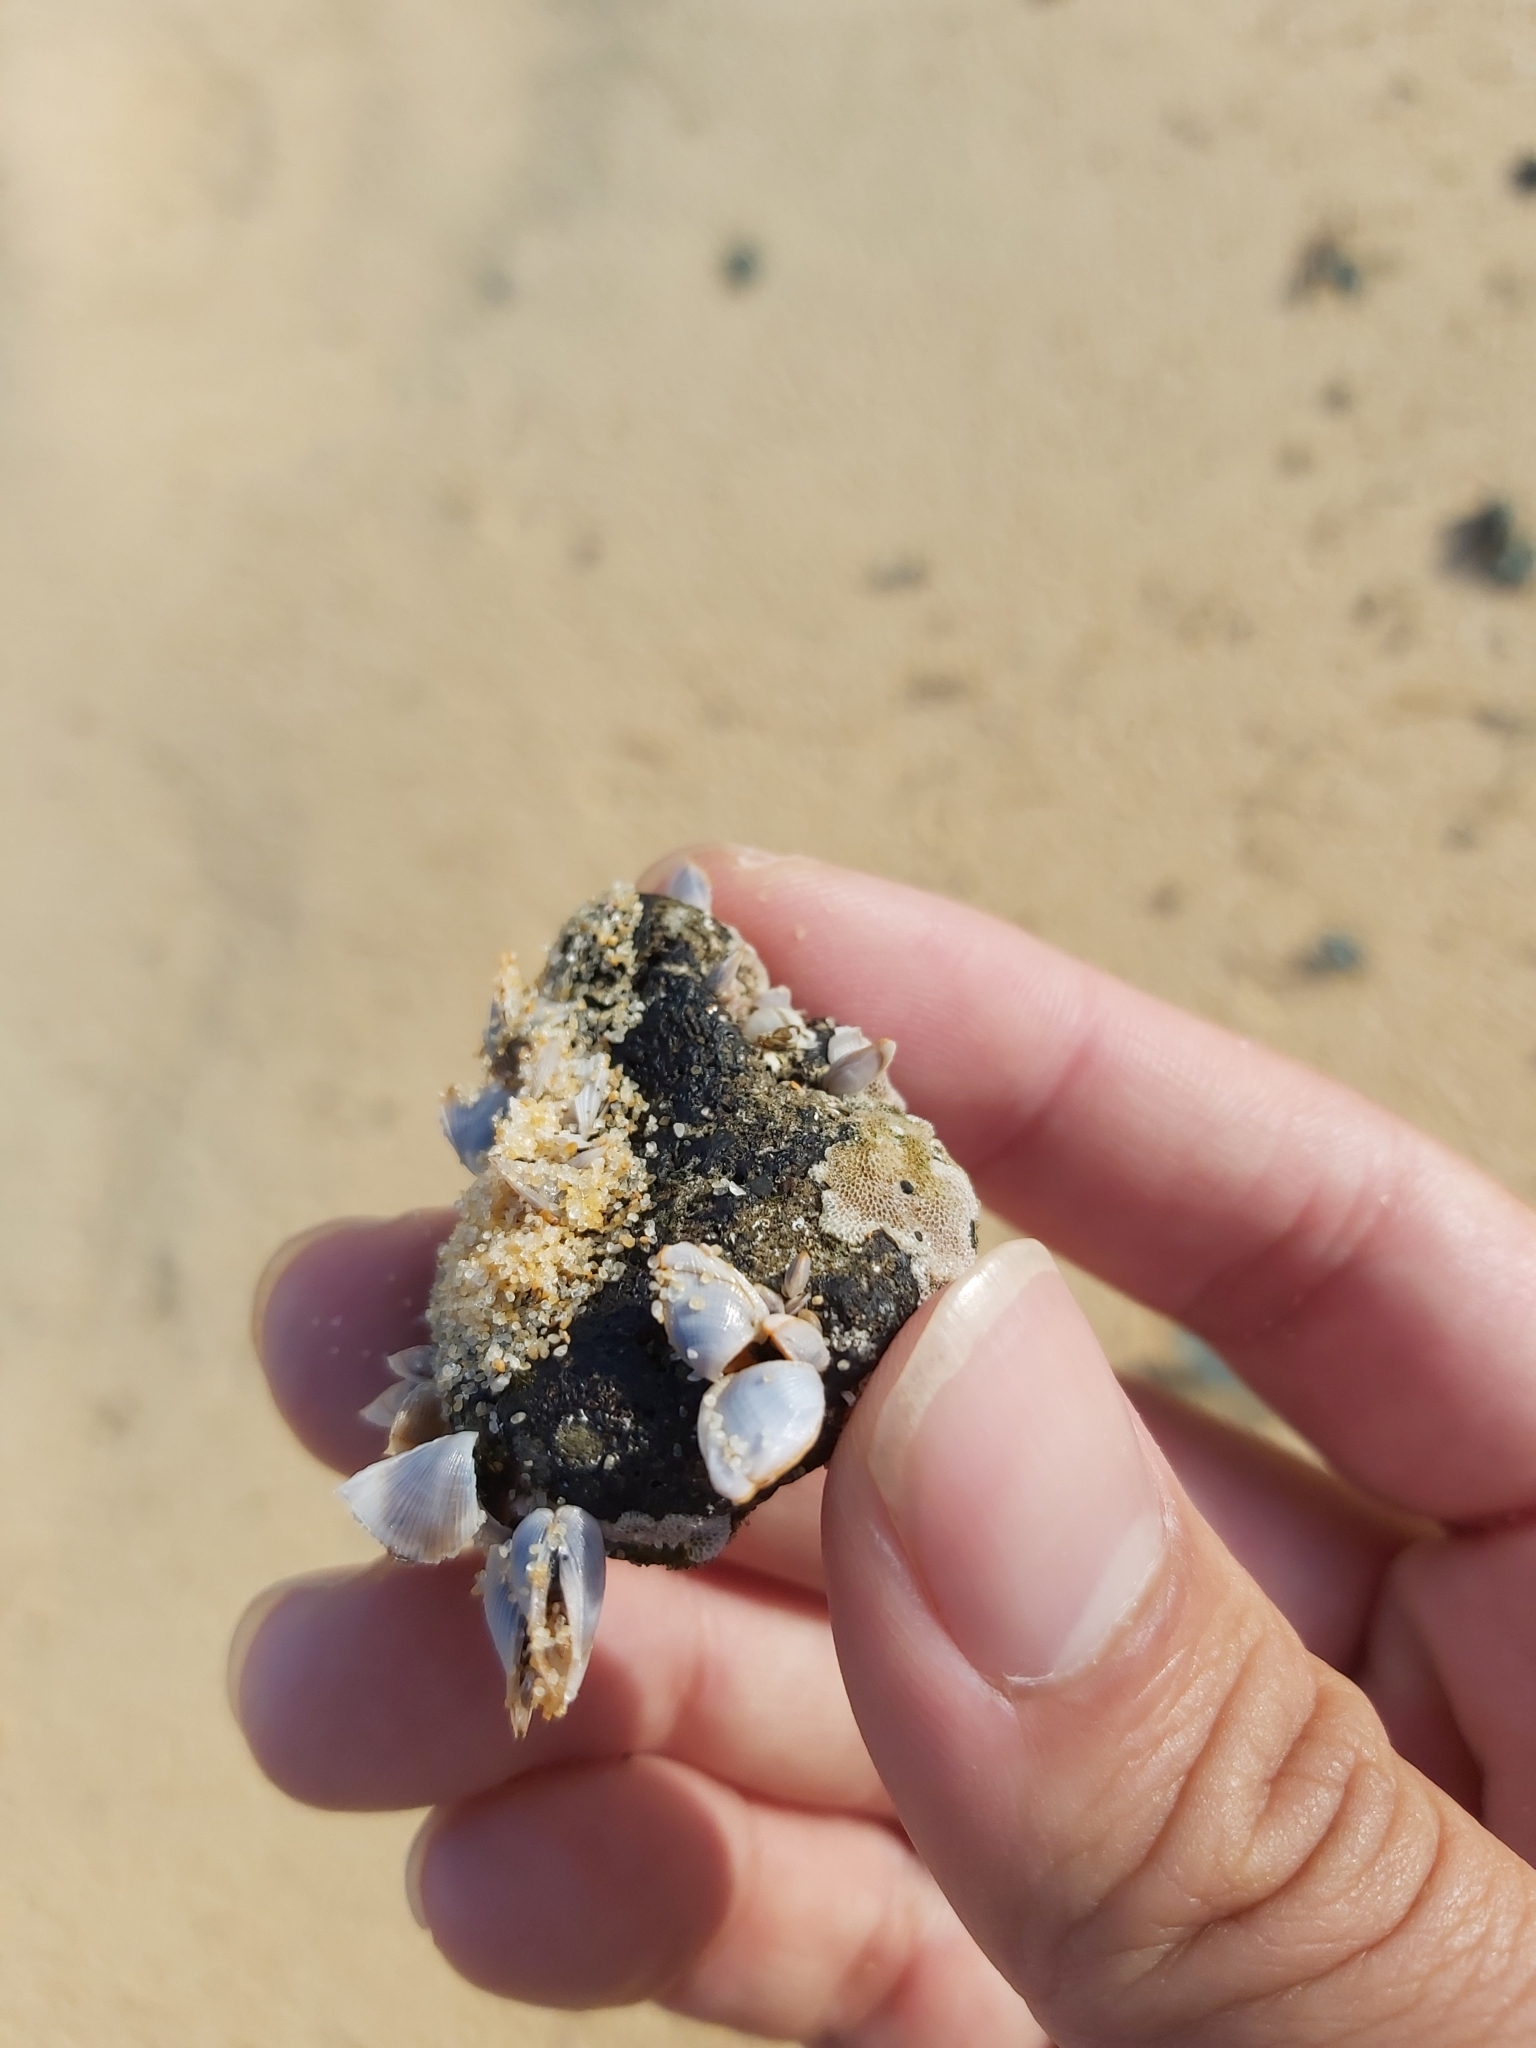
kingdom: Animalia
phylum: Arthropoda
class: Maxillopoda
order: Pedunculata
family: Lepadidae
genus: Lepas
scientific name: Lepas anserifera
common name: Goose barnacle
